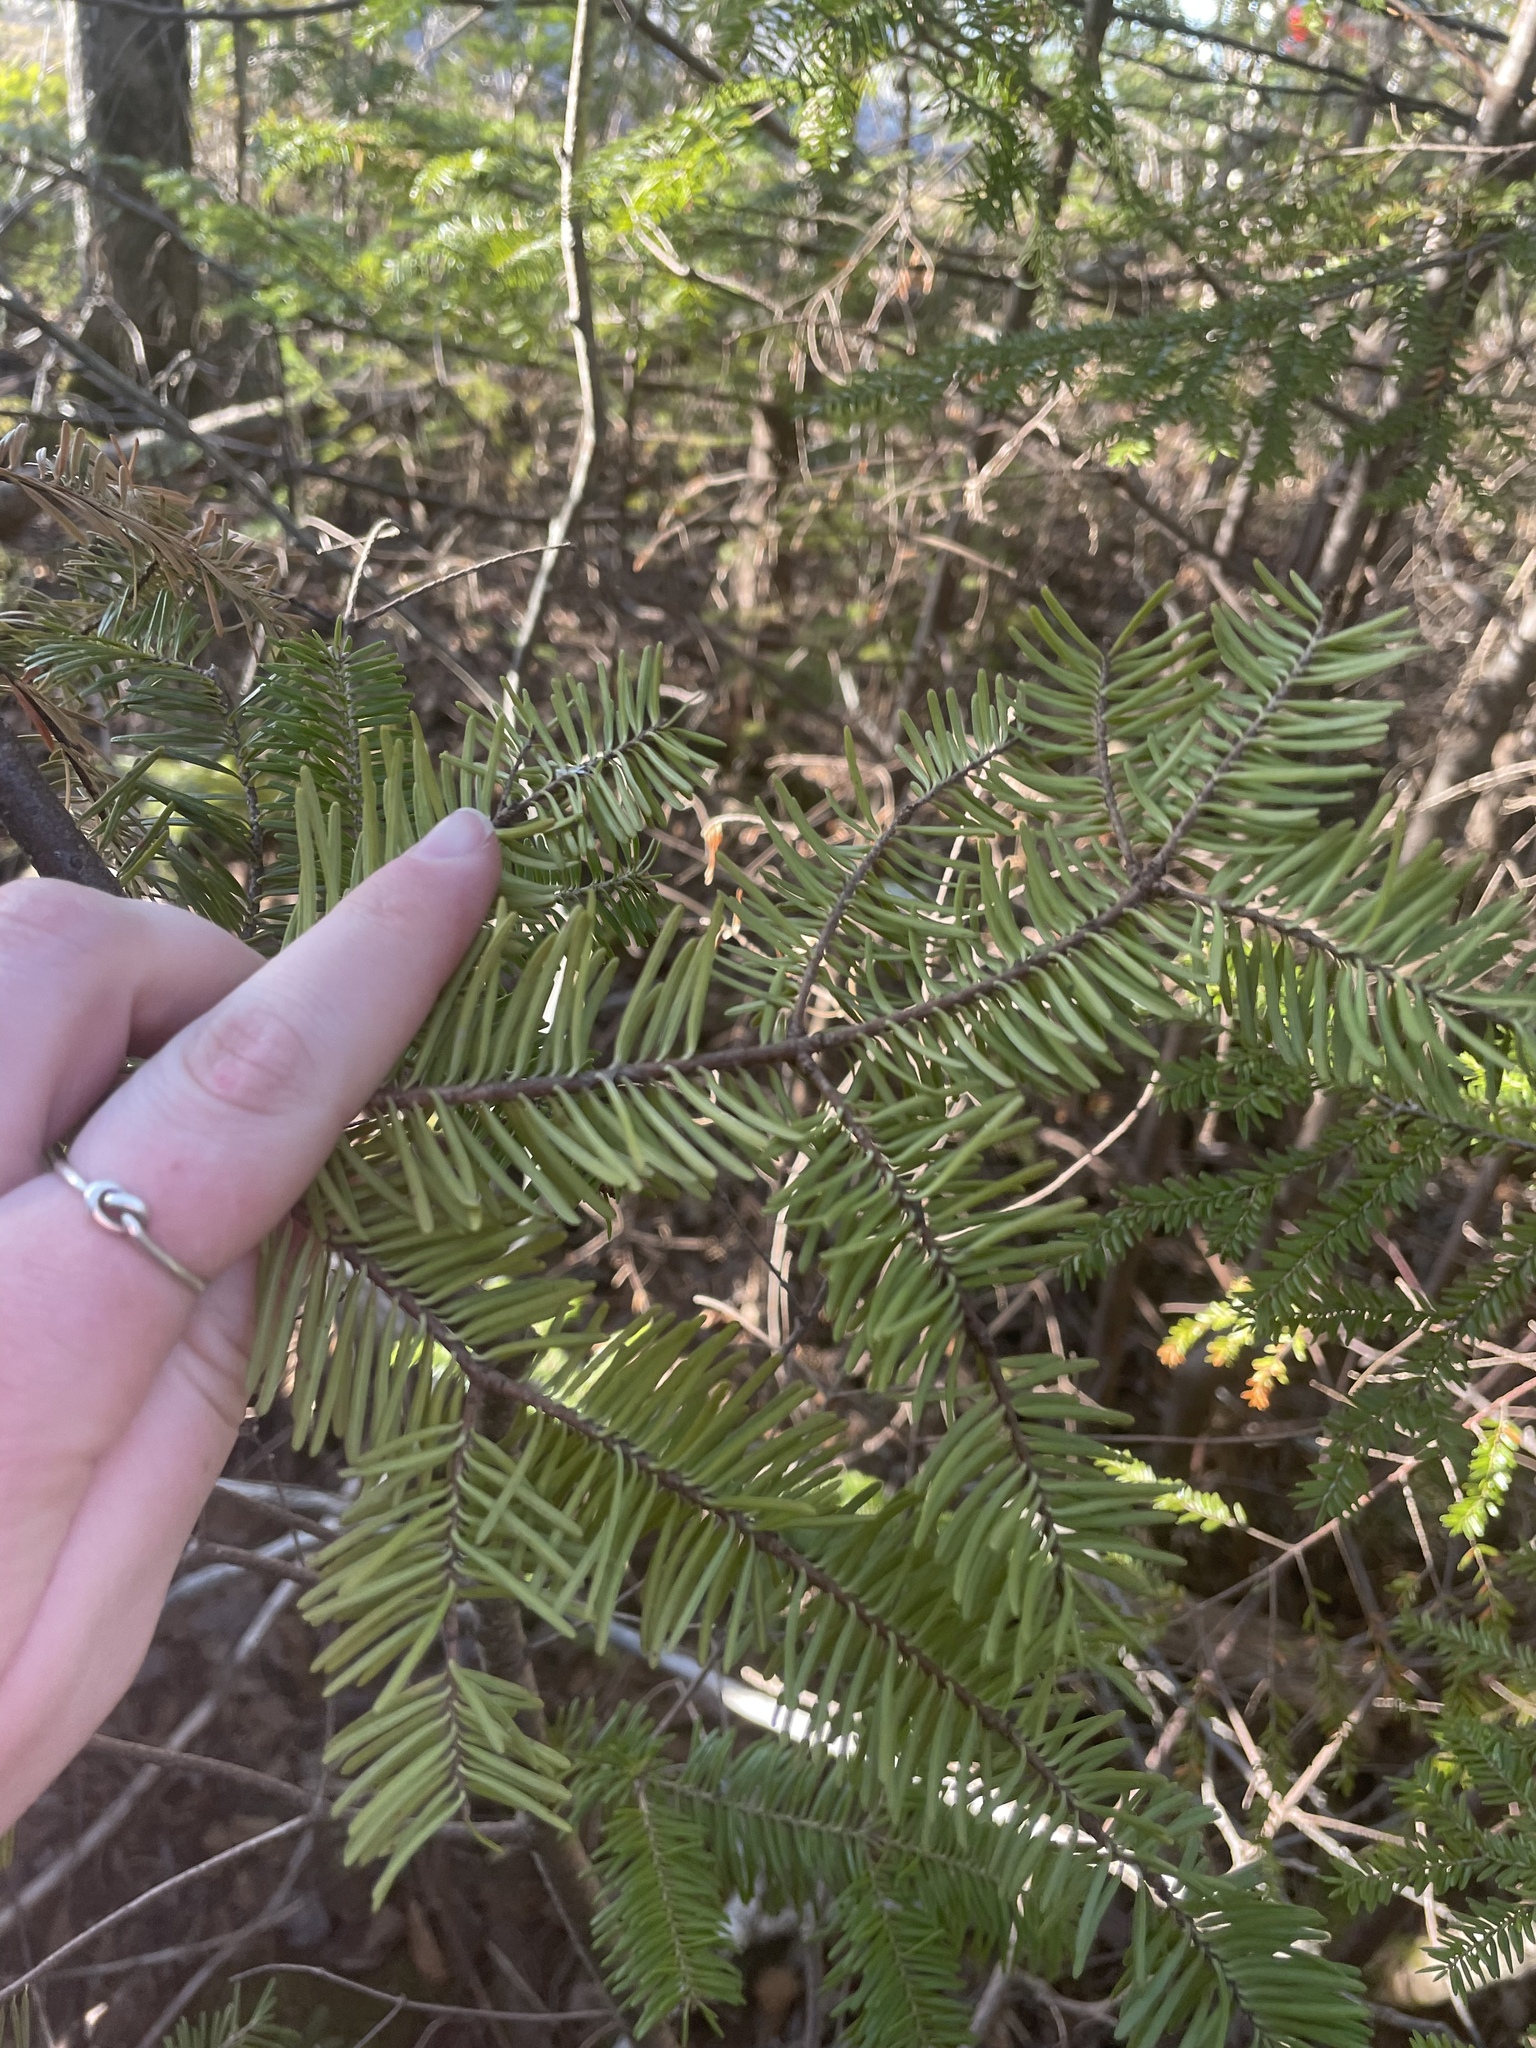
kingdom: Plantae
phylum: Tracheophyta
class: Pinopsida
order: Pinales
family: Pinaceae
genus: Abies
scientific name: Abies balsamea
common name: Balsam fir
